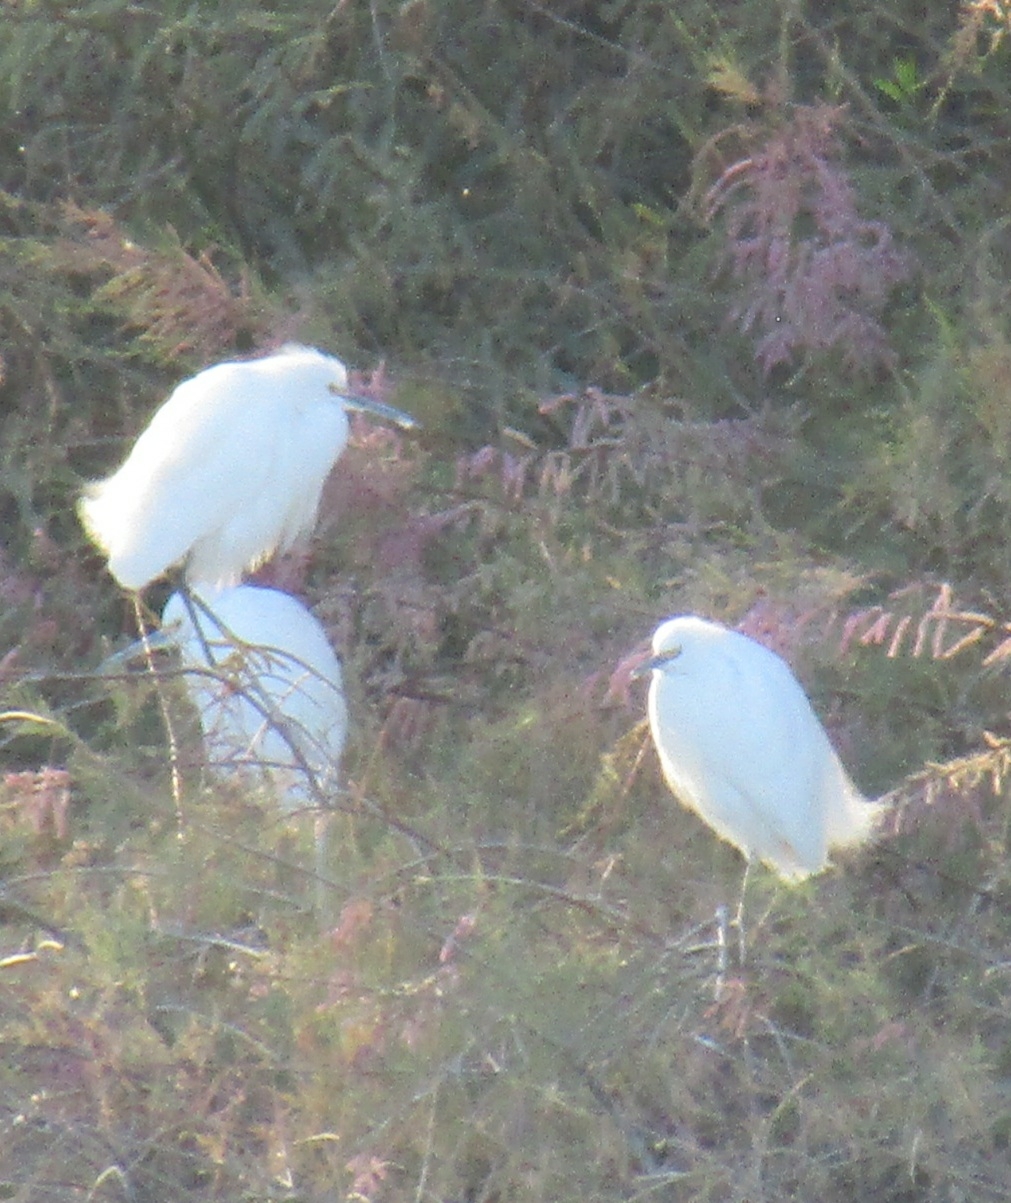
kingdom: Animalia
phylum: Chordata
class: Aves
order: Pelecaniformes
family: Ardeidae
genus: Egretta
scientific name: Egretta thula
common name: Snowy egret
